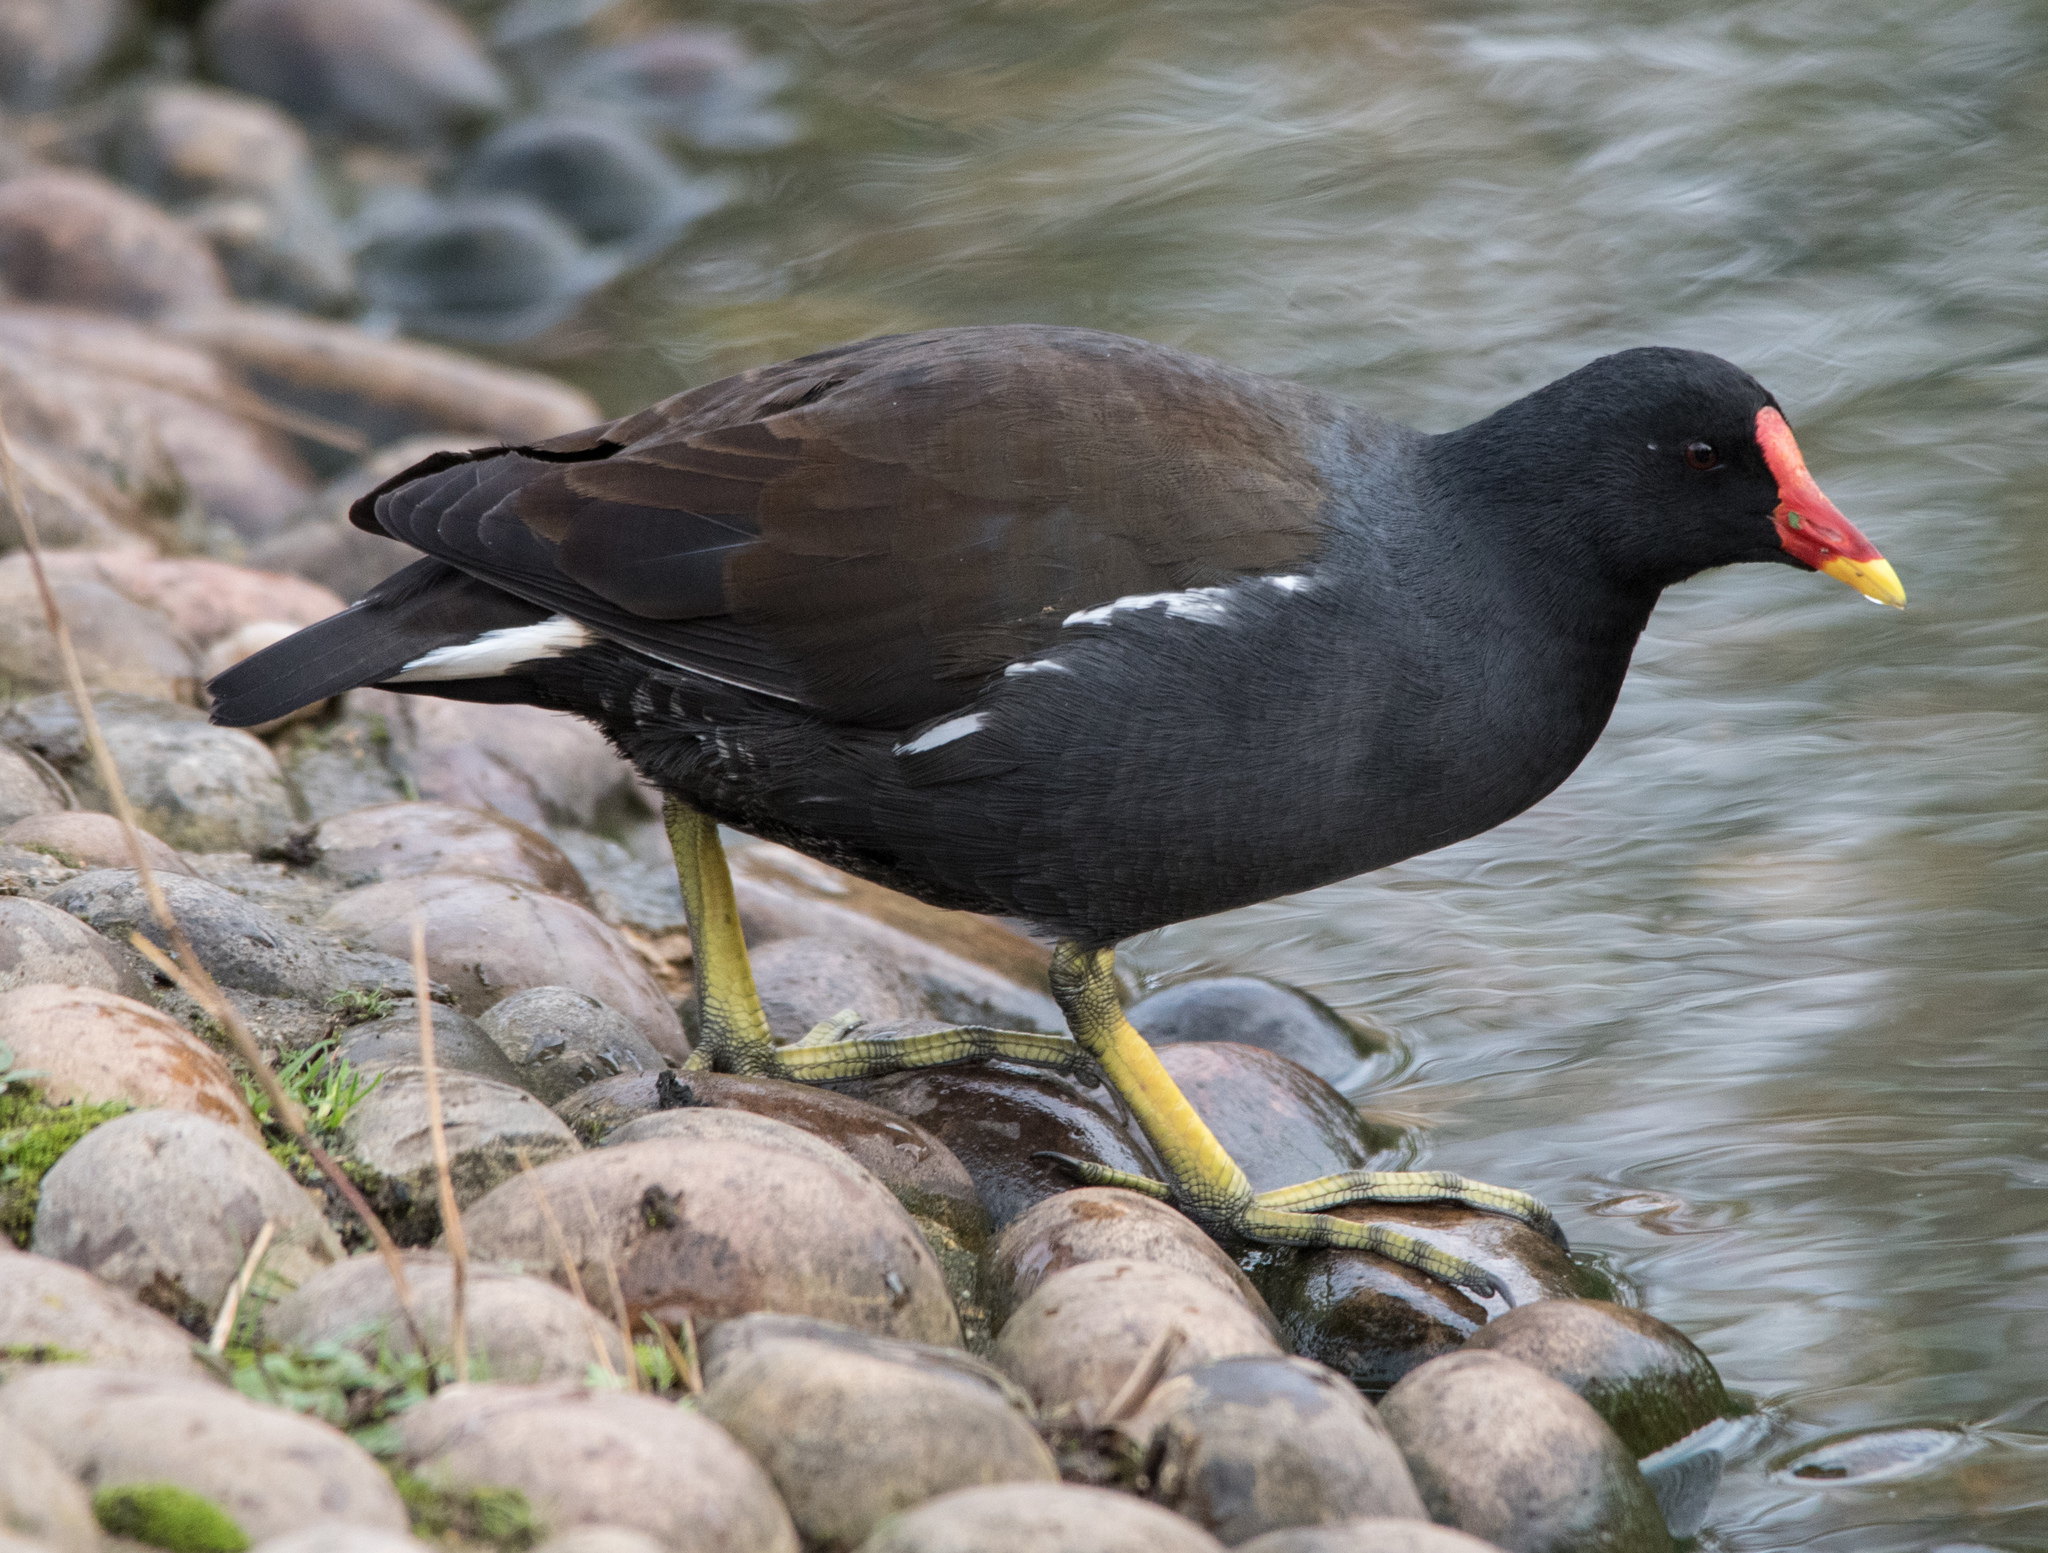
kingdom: Animalia
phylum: Chordata
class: Aves
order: Gruiformes
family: Rallidae
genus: Gallinula
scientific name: Gallinula chloropus
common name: Common moorhen
